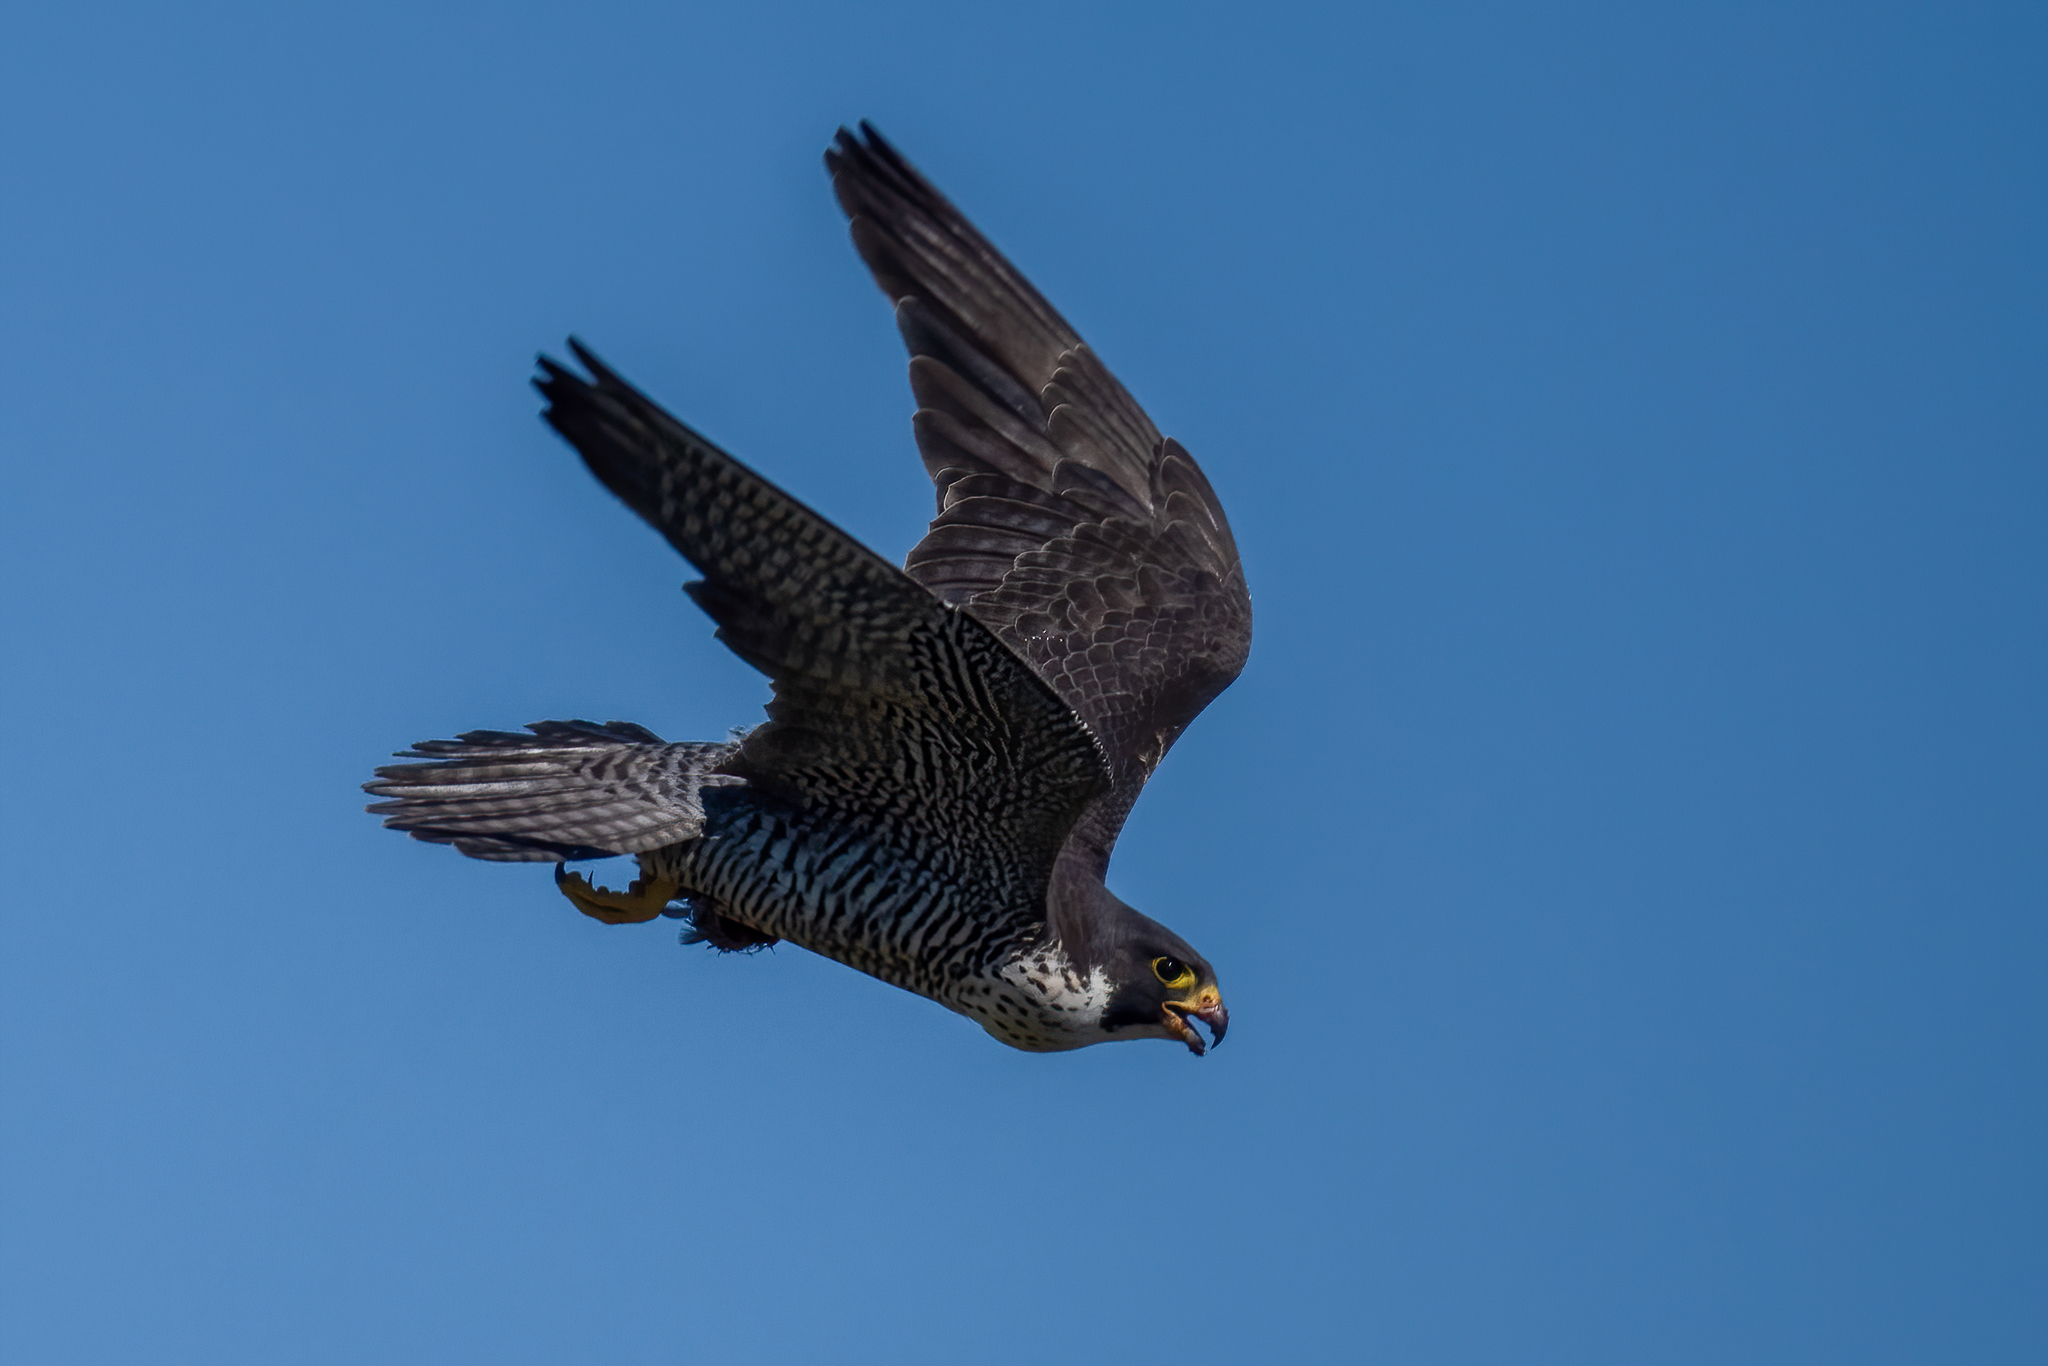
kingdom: Animalia
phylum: Chordata
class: Aves
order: Falconiformes
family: Falconidae
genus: Falco
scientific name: Falco peregrinus
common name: Peregrine falcon
